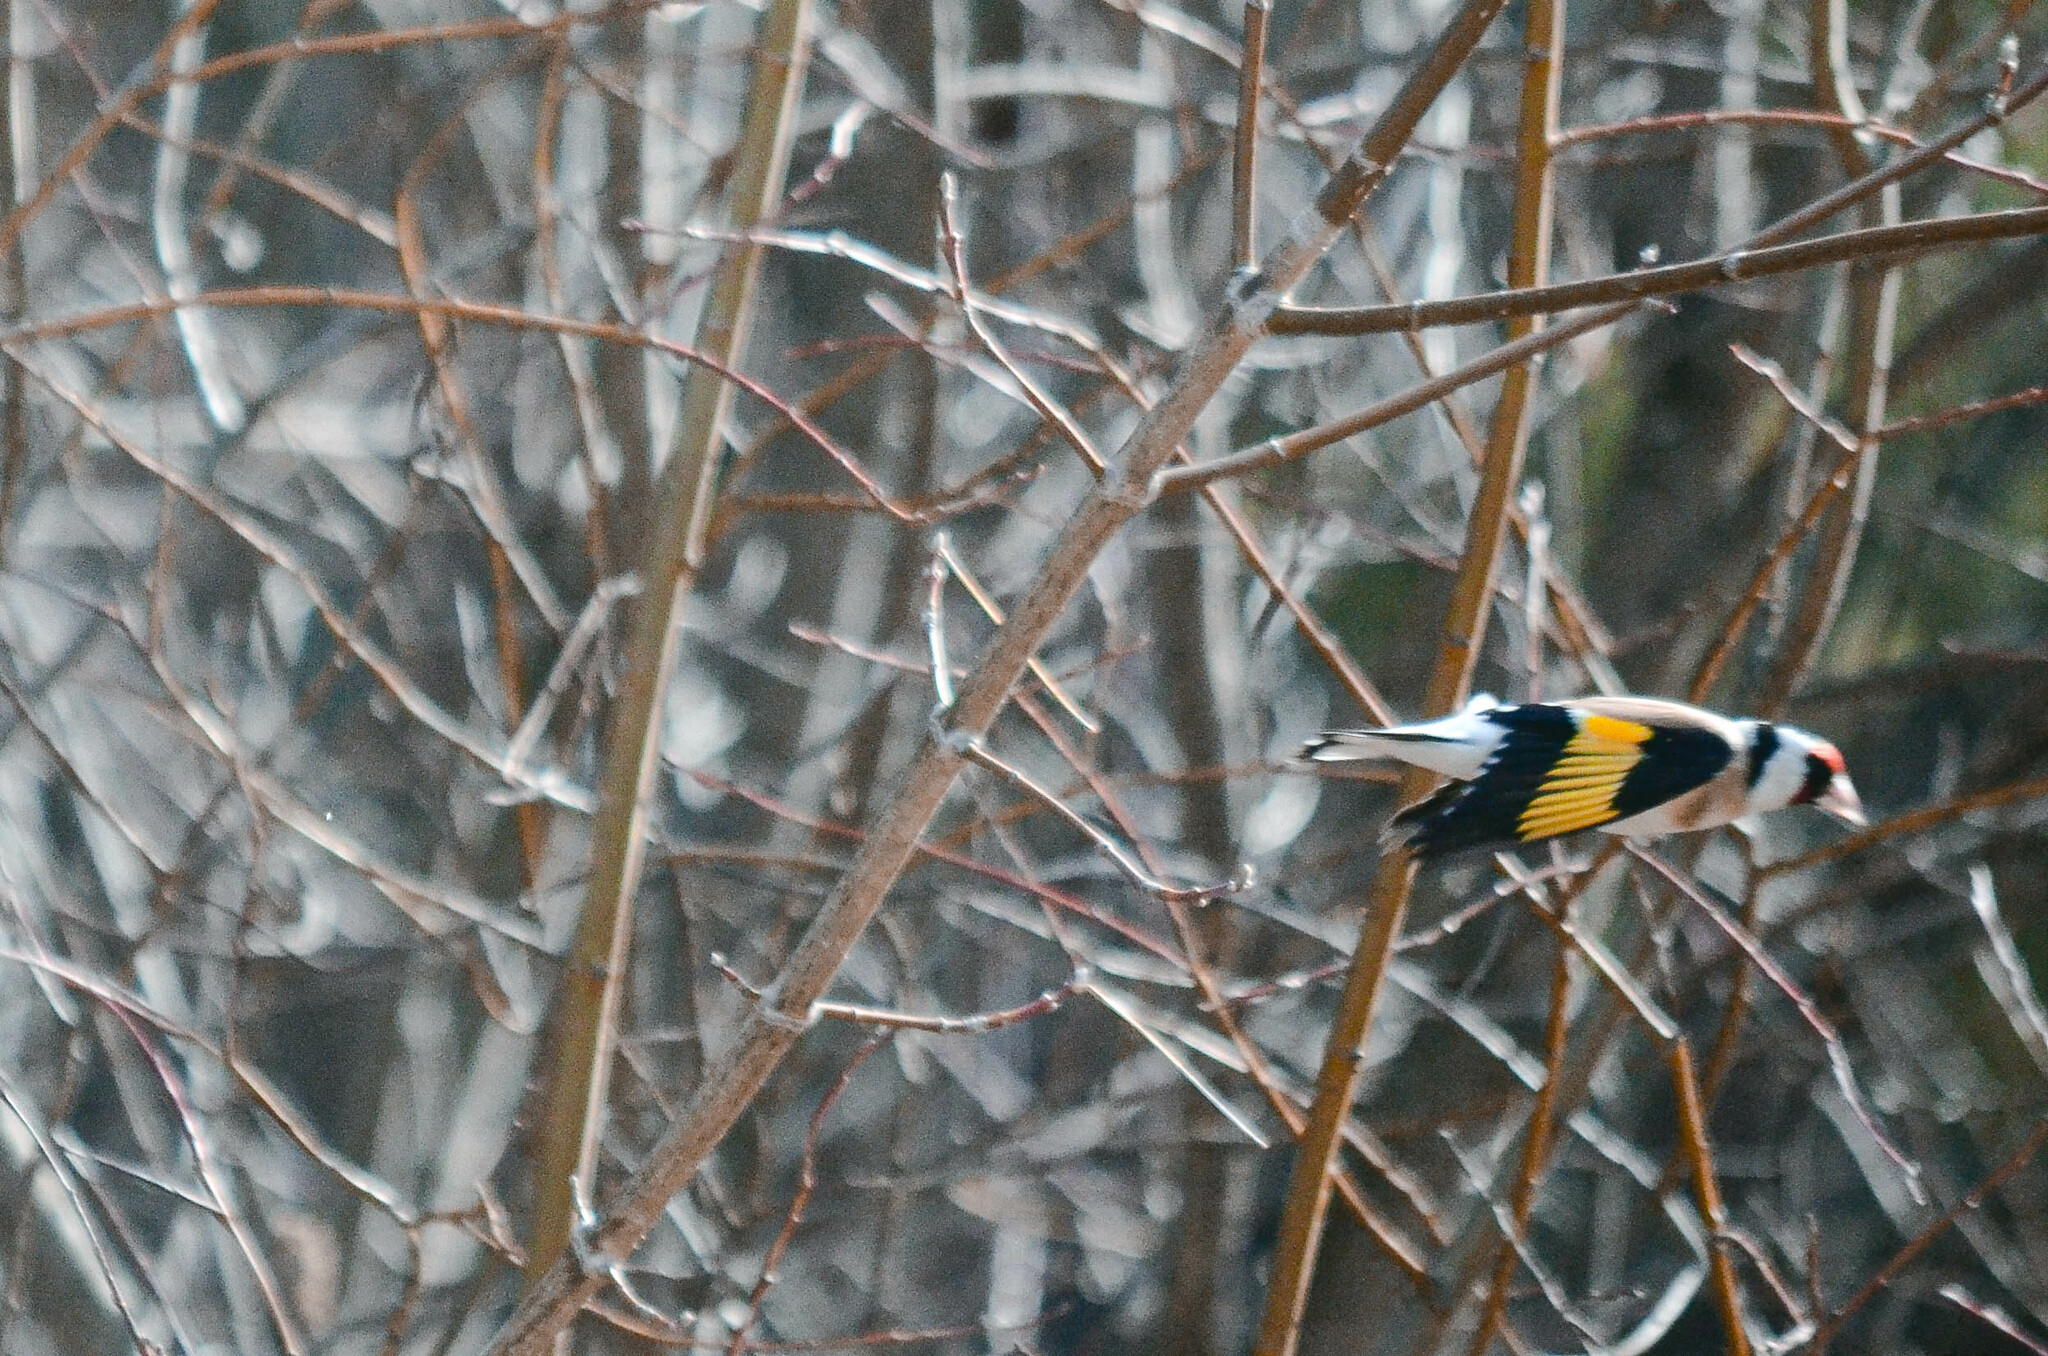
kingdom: Animalia
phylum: Chordata
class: Aves
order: Passeriformes
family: Fringillidae
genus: Carduelis
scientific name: Carduelis carduelis
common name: European goldfinch
